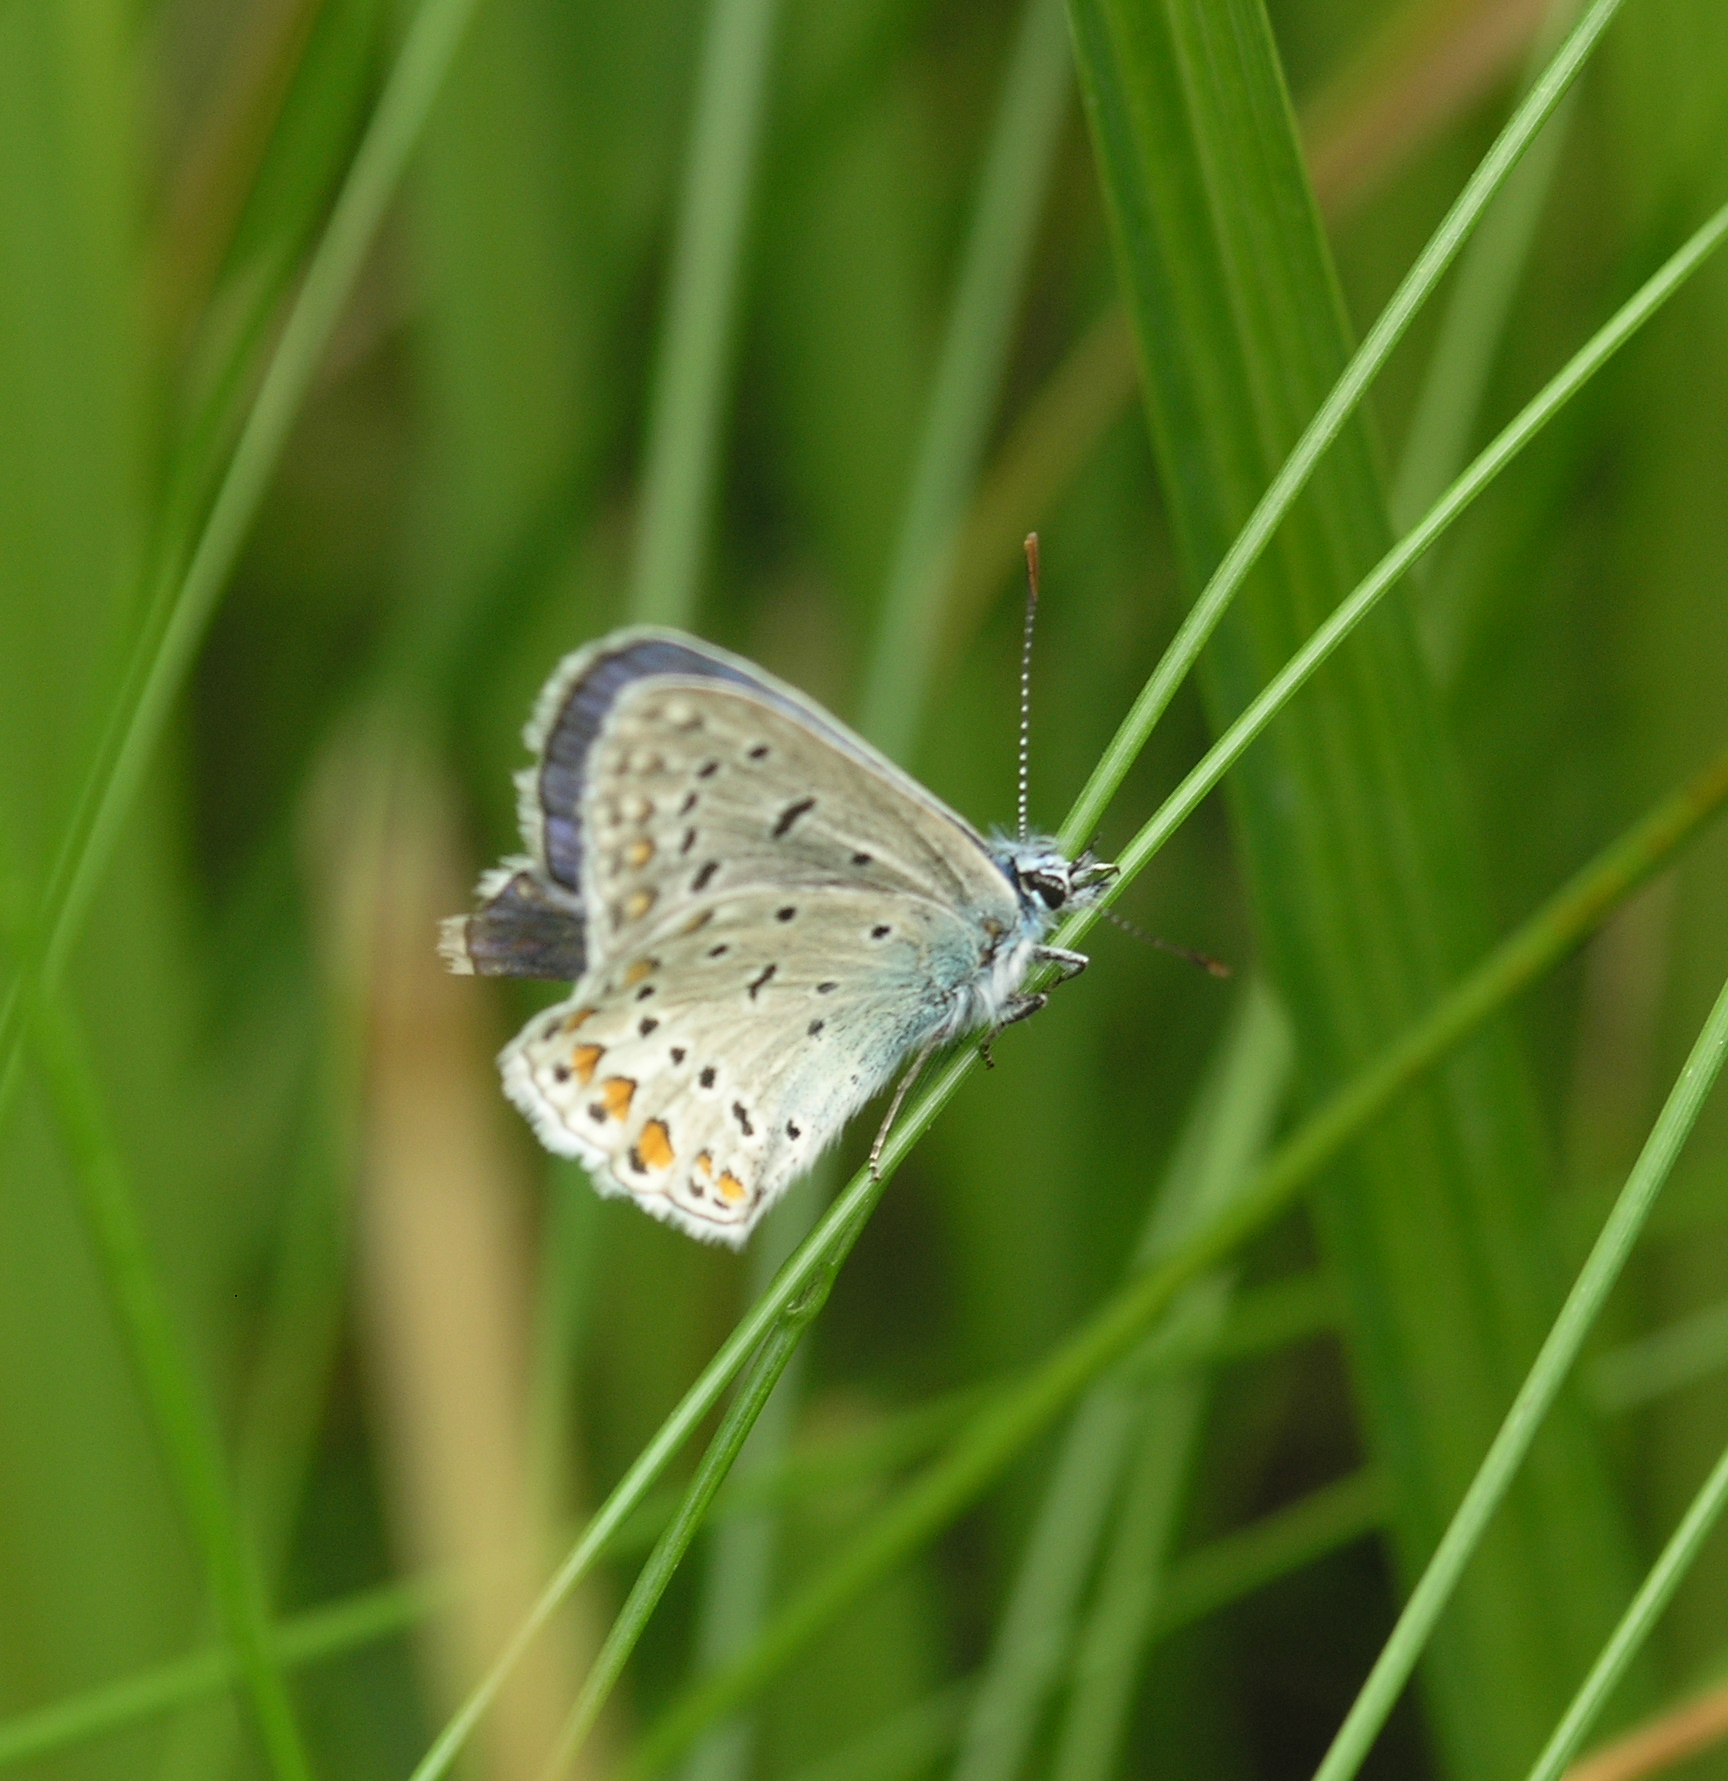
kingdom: Animalia
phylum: Arthropoda
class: Insecta
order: Lepidoptera
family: Lycaenidae
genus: Polyommatus
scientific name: Polyommatus icarus
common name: Common blue
